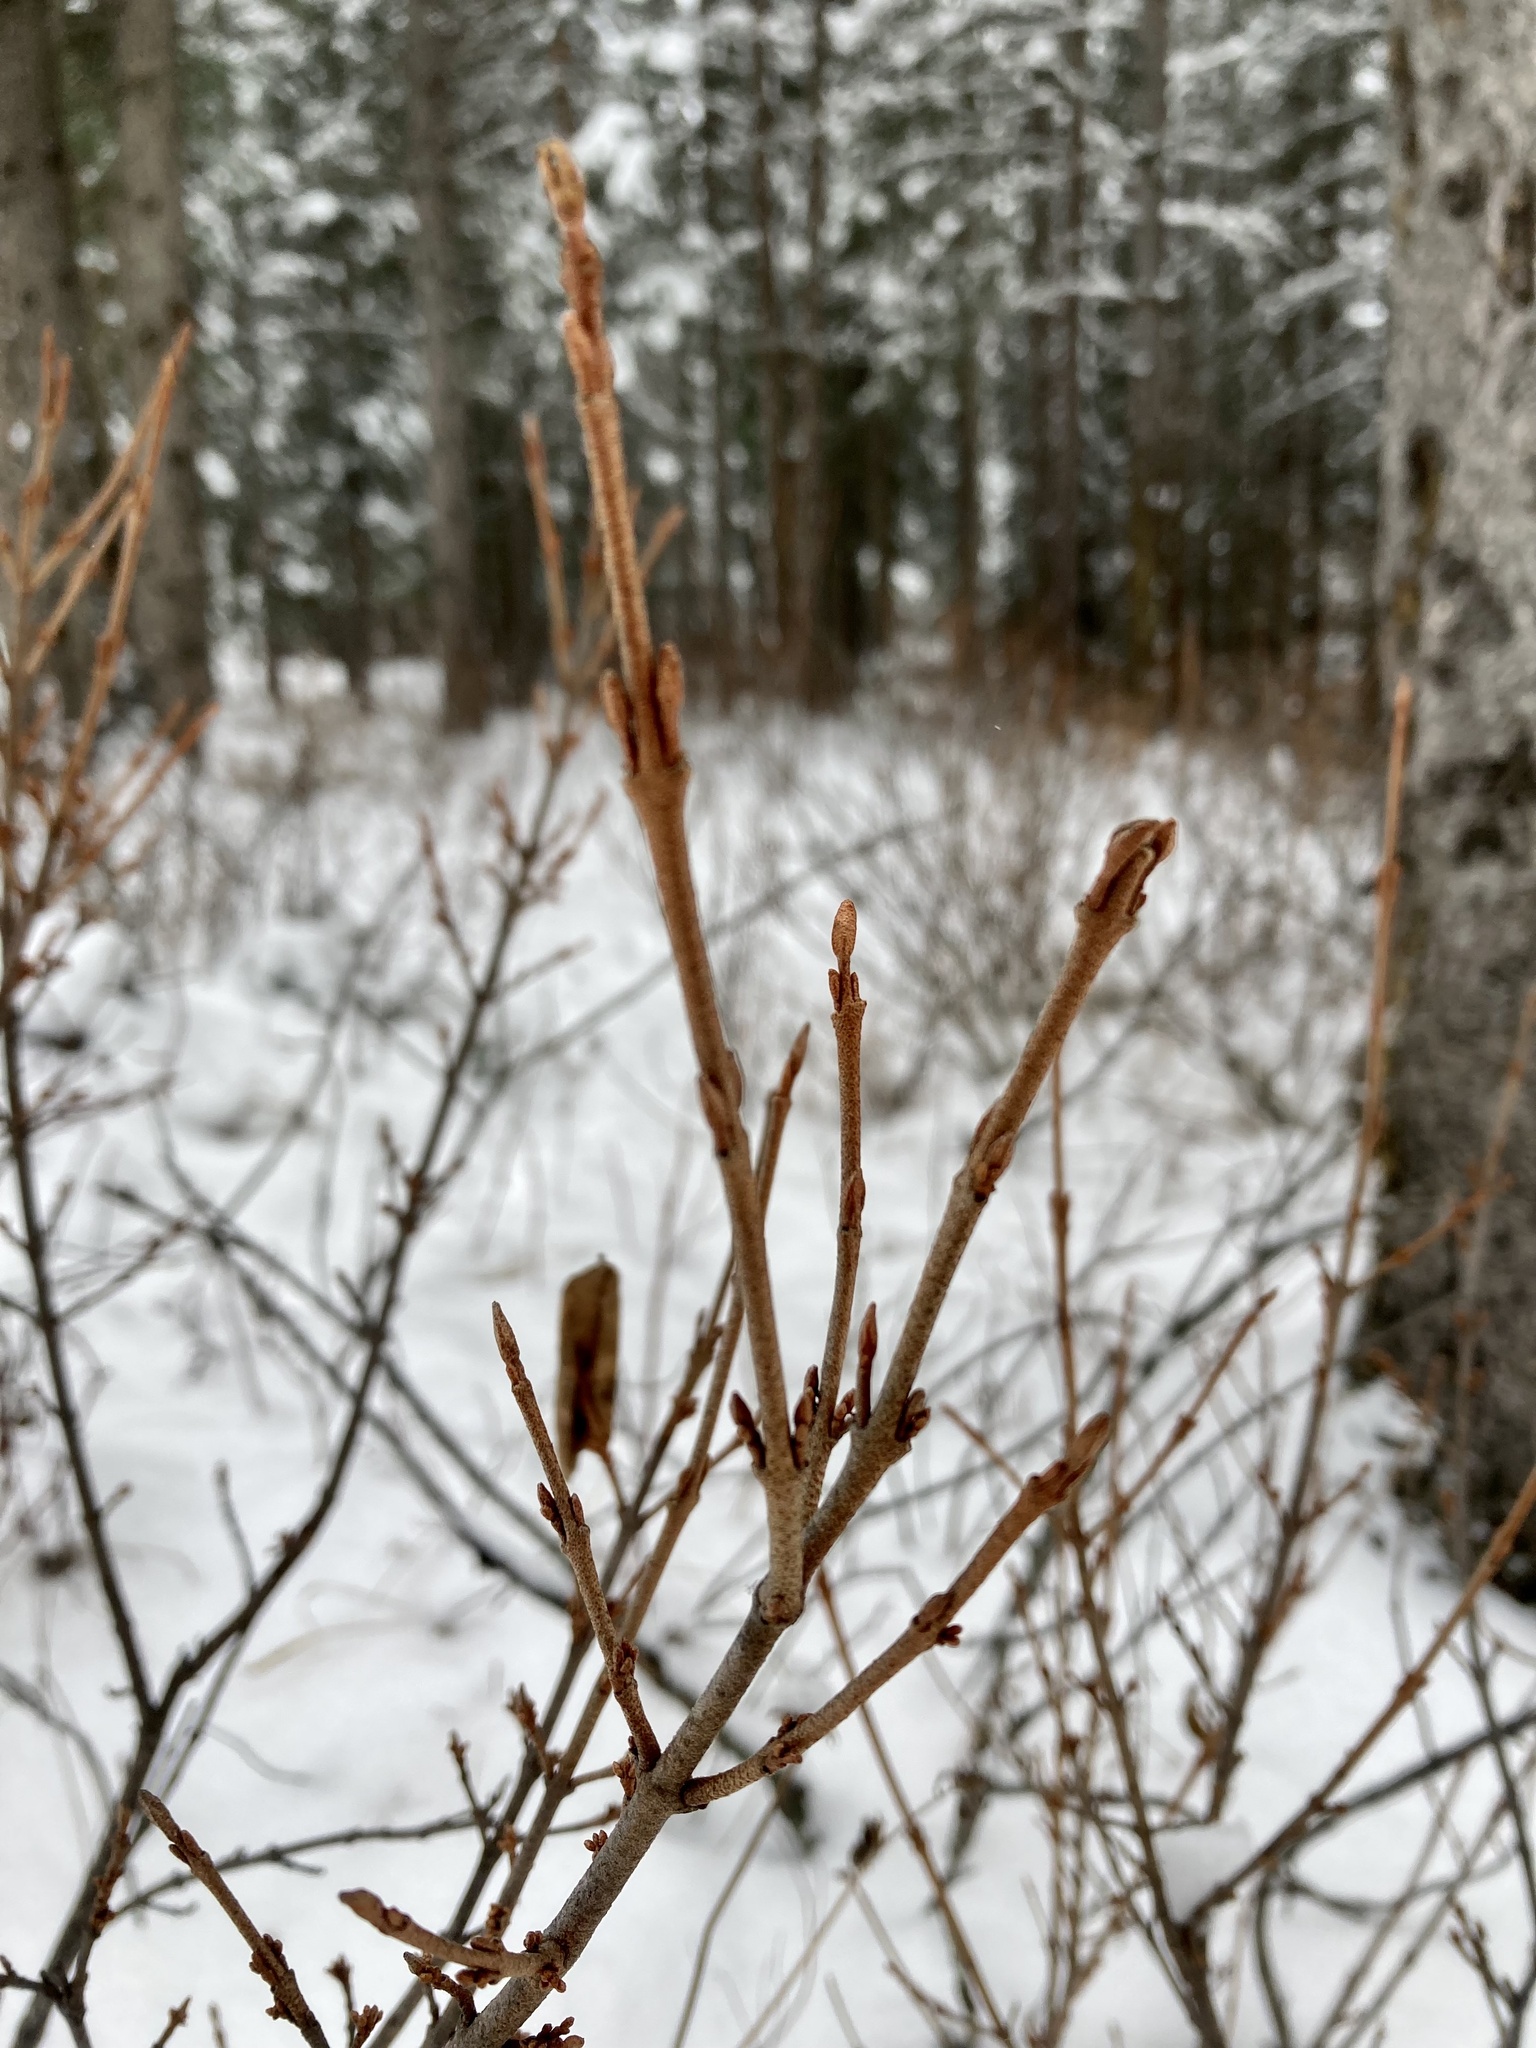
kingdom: Plantae
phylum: Tracheophyta
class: Magnoliopsida
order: Rosales
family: Elaeagnaceae
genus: Shepherdia
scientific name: Shepherdia canadensis
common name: Soapberry
